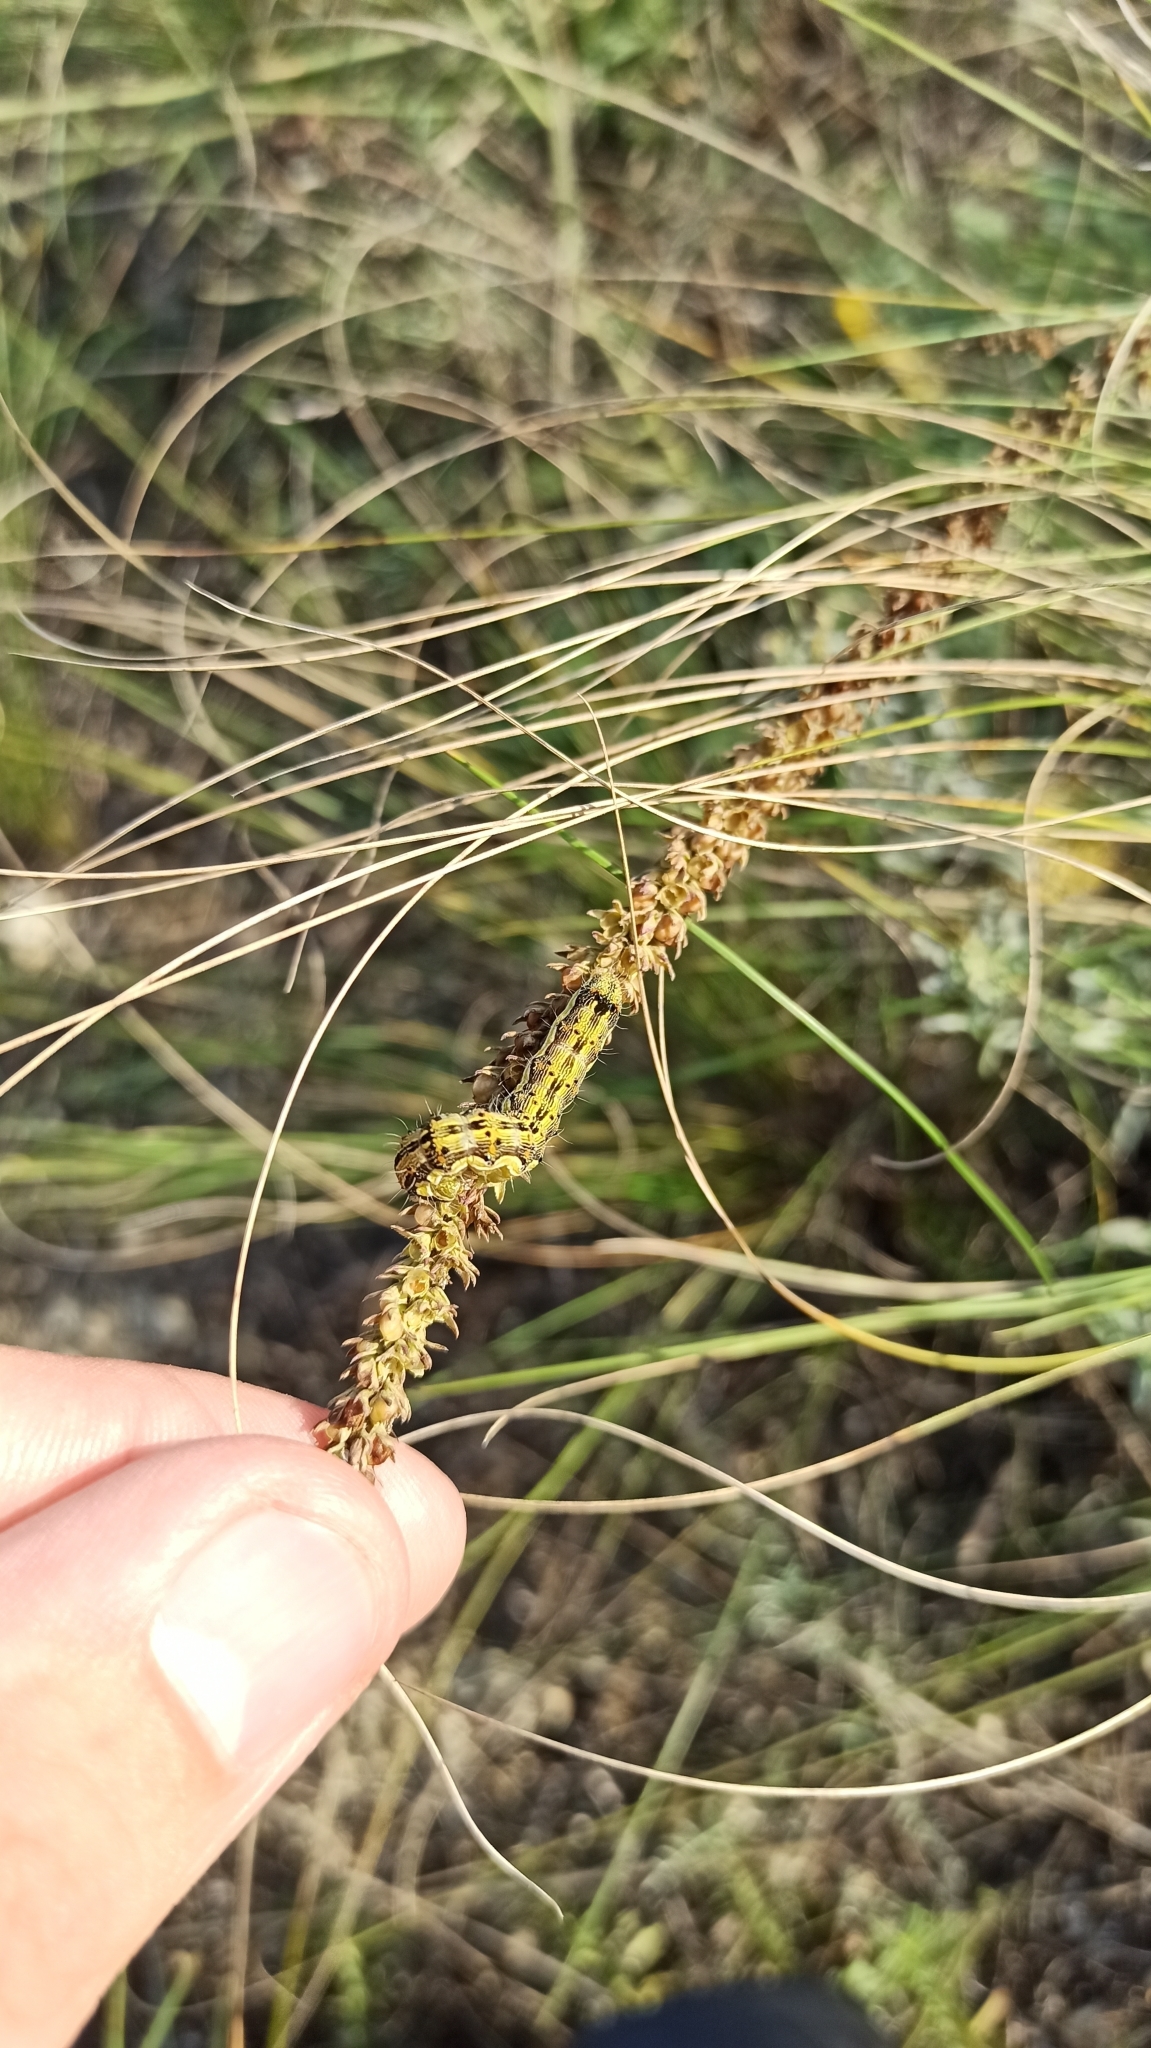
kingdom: Animalia
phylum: Arthropoda
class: Insecta
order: Lepidoptera
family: Noctuidae
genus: Helicoverpa
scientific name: Helicoverpa armigera
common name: Cotton bollworm
